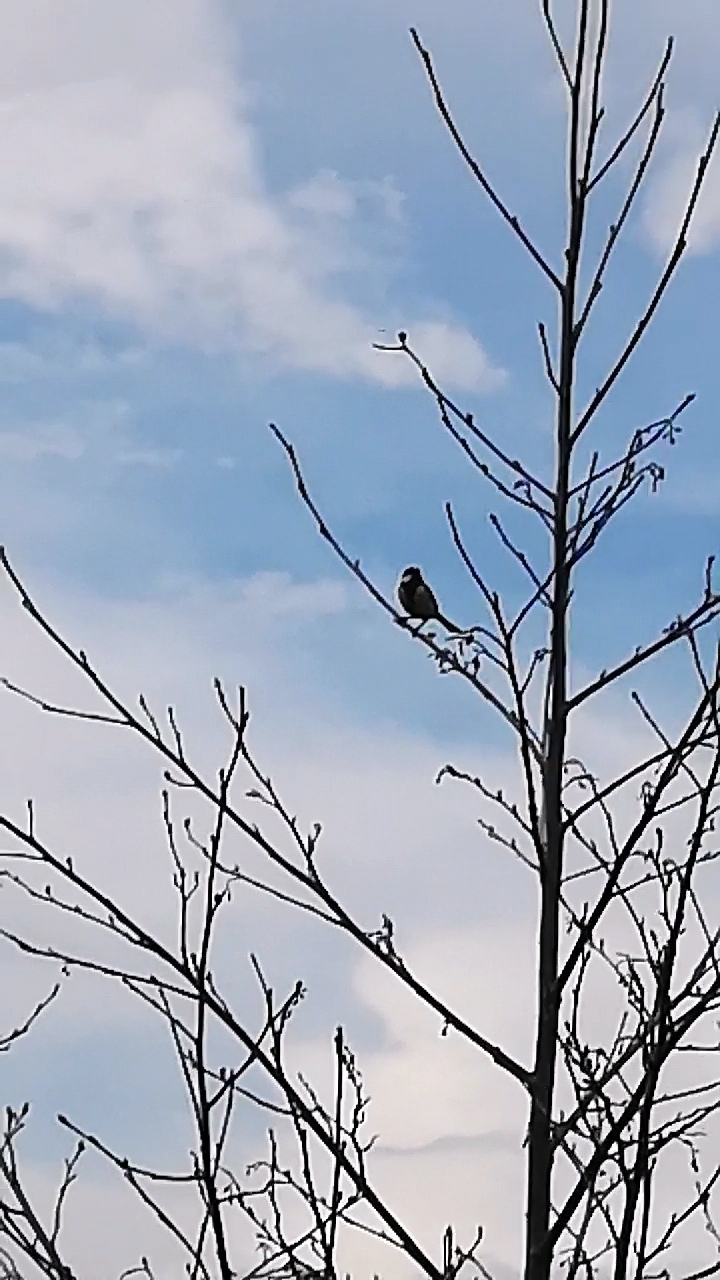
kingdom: Animalia
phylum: Chordata
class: Aves
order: Passeriformes
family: Paridae
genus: Parus
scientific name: Parus major
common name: Great tit
